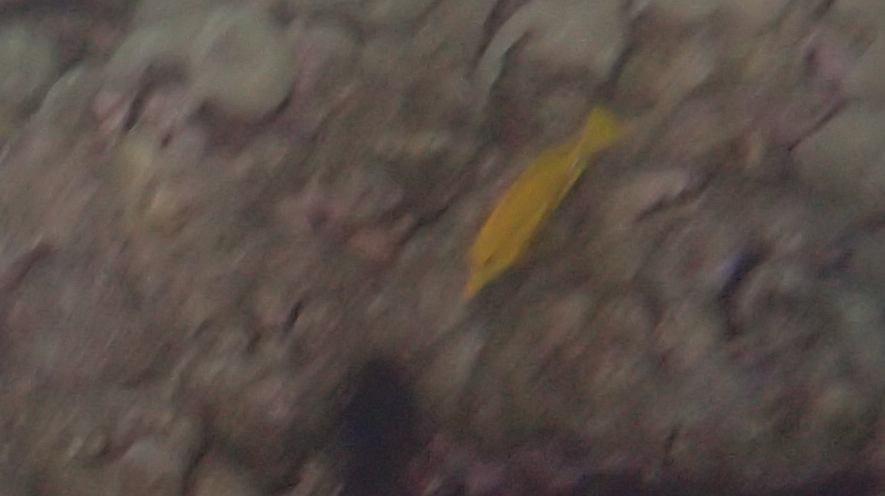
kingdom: Animalia
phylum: Chordata
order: Perciformes
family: Acanthuridae
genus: Zebrasoma
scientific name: Zebrasoma flavescens
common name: Yellow tang
